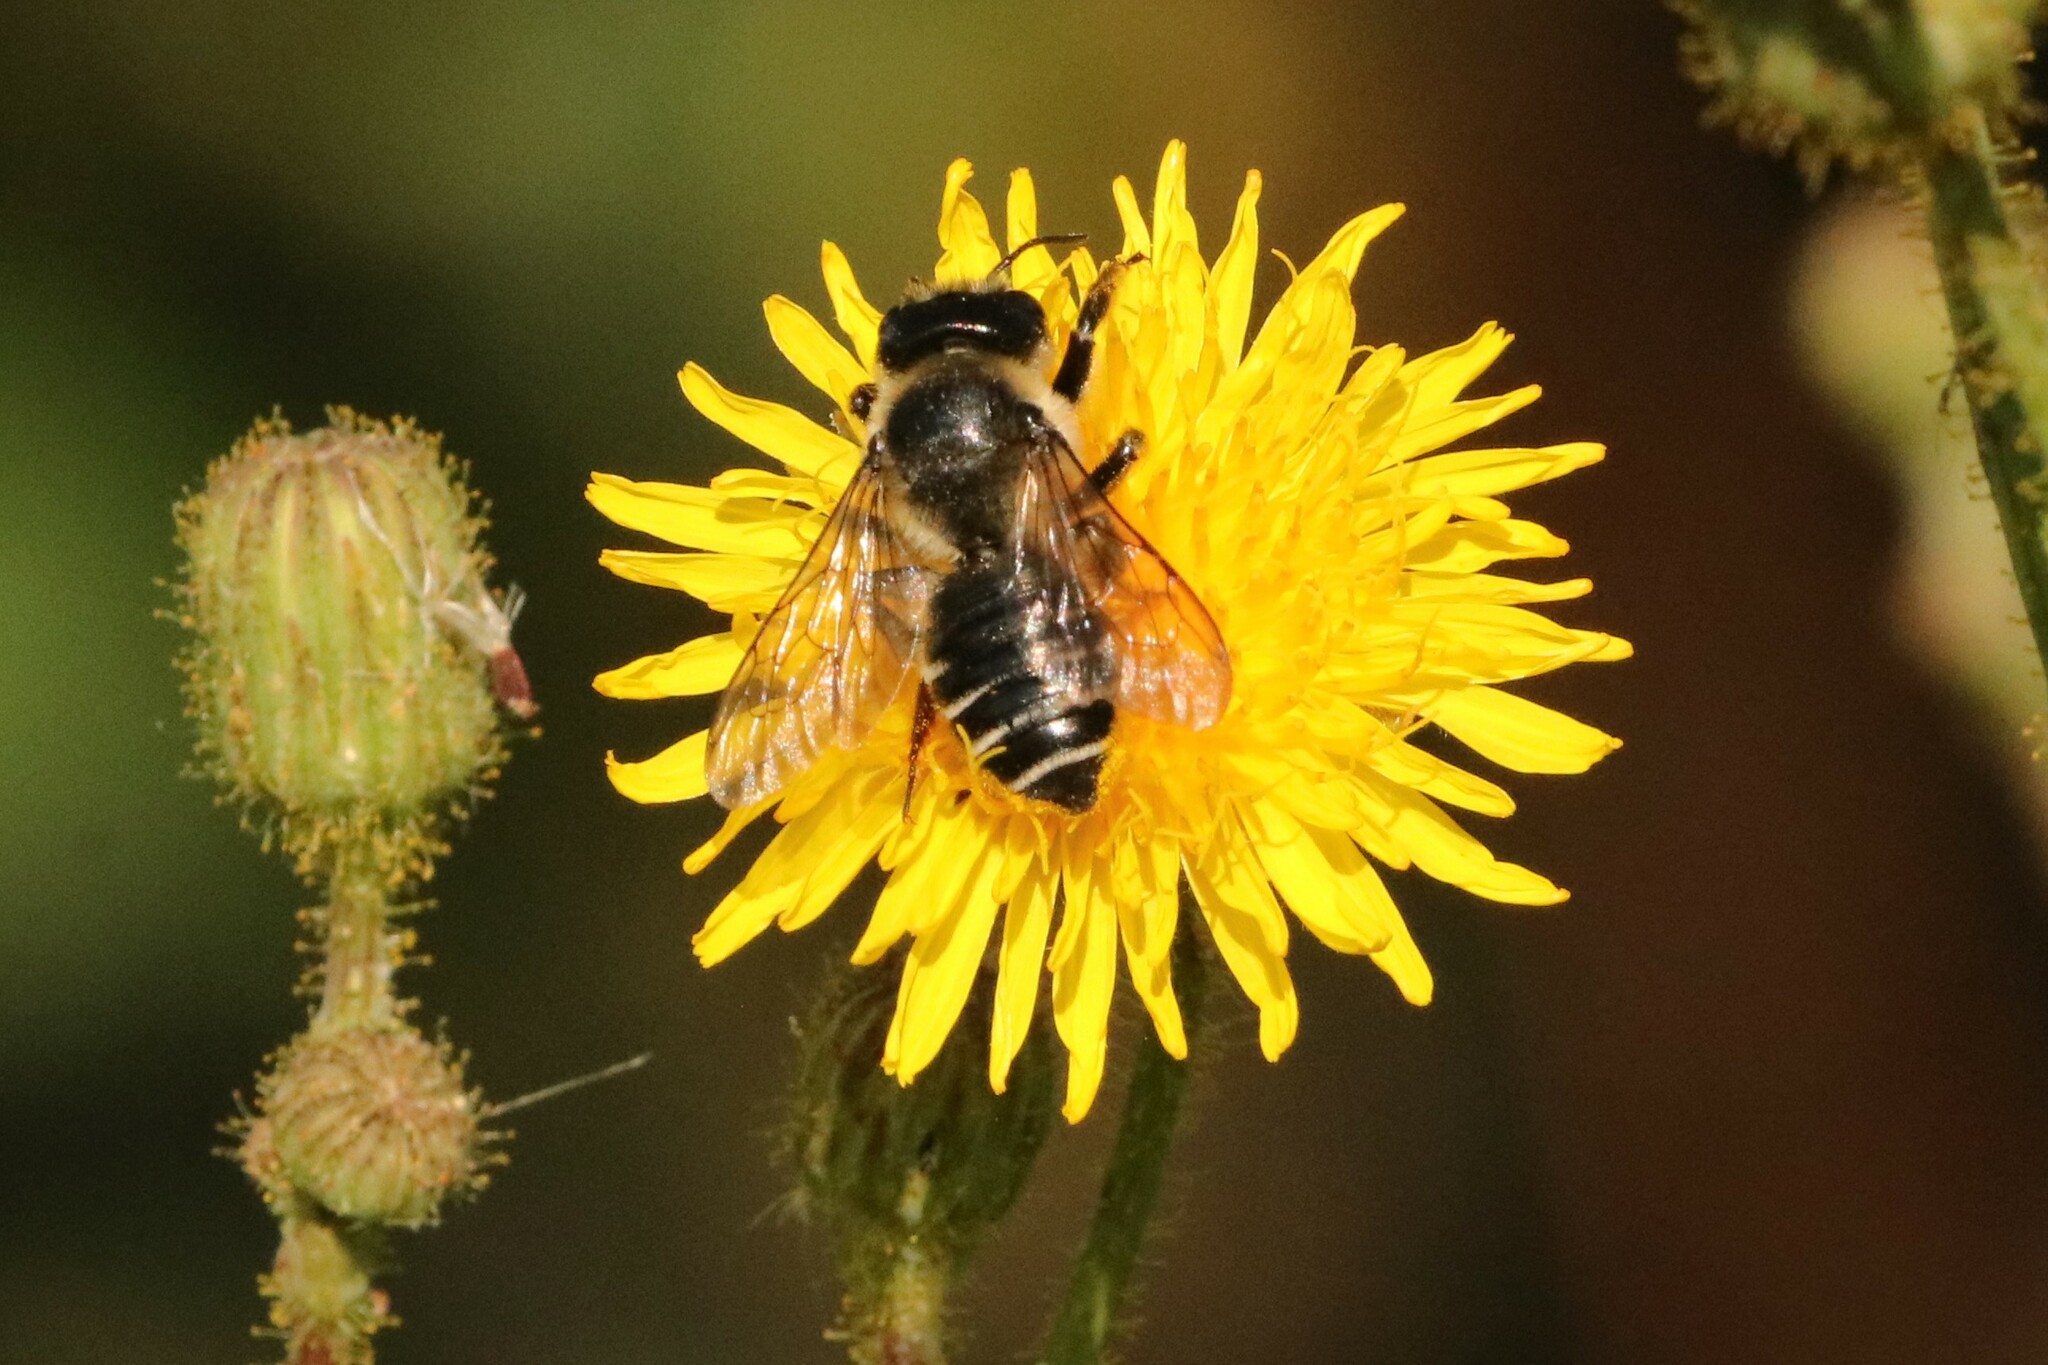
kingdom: Animalia
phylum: Arthropoda
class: Insecta
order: Hymenoptera
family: Megachilidae
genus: Megachile
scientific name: Megachile inermis
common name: Unarmed leafcutter bee
